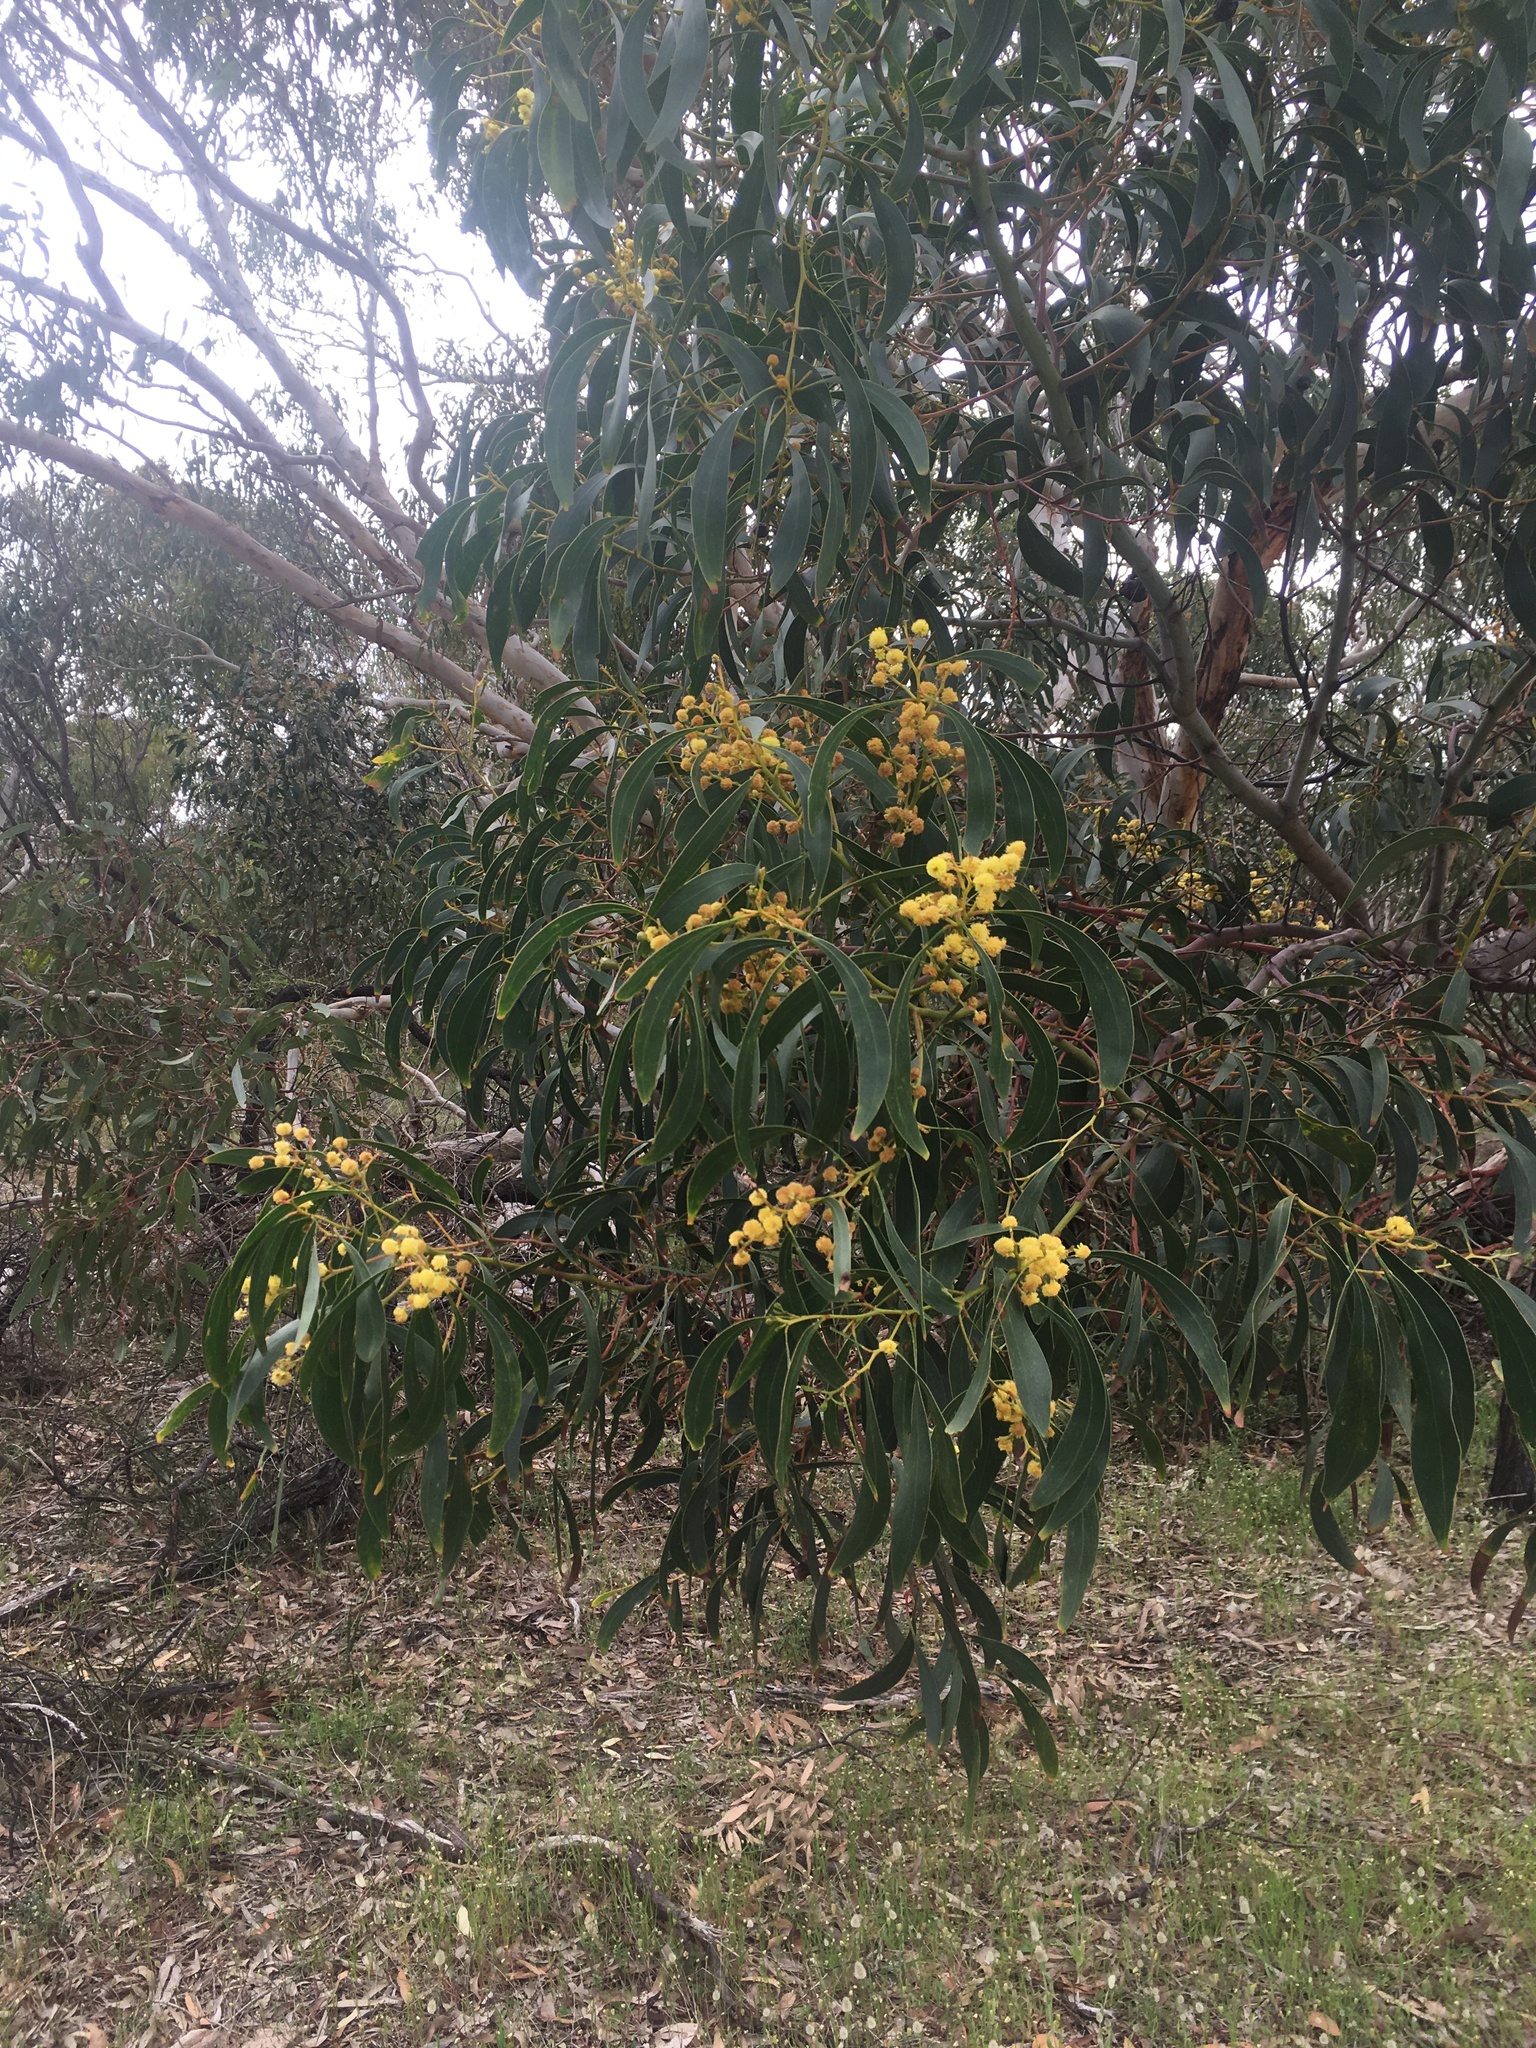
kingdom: Plantae
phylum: Tracheophyta
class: Magnoliopsida
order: Fabales
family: Fabaceae
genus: Acacia
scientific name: Acacia pycnantha
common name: Golden wattle
